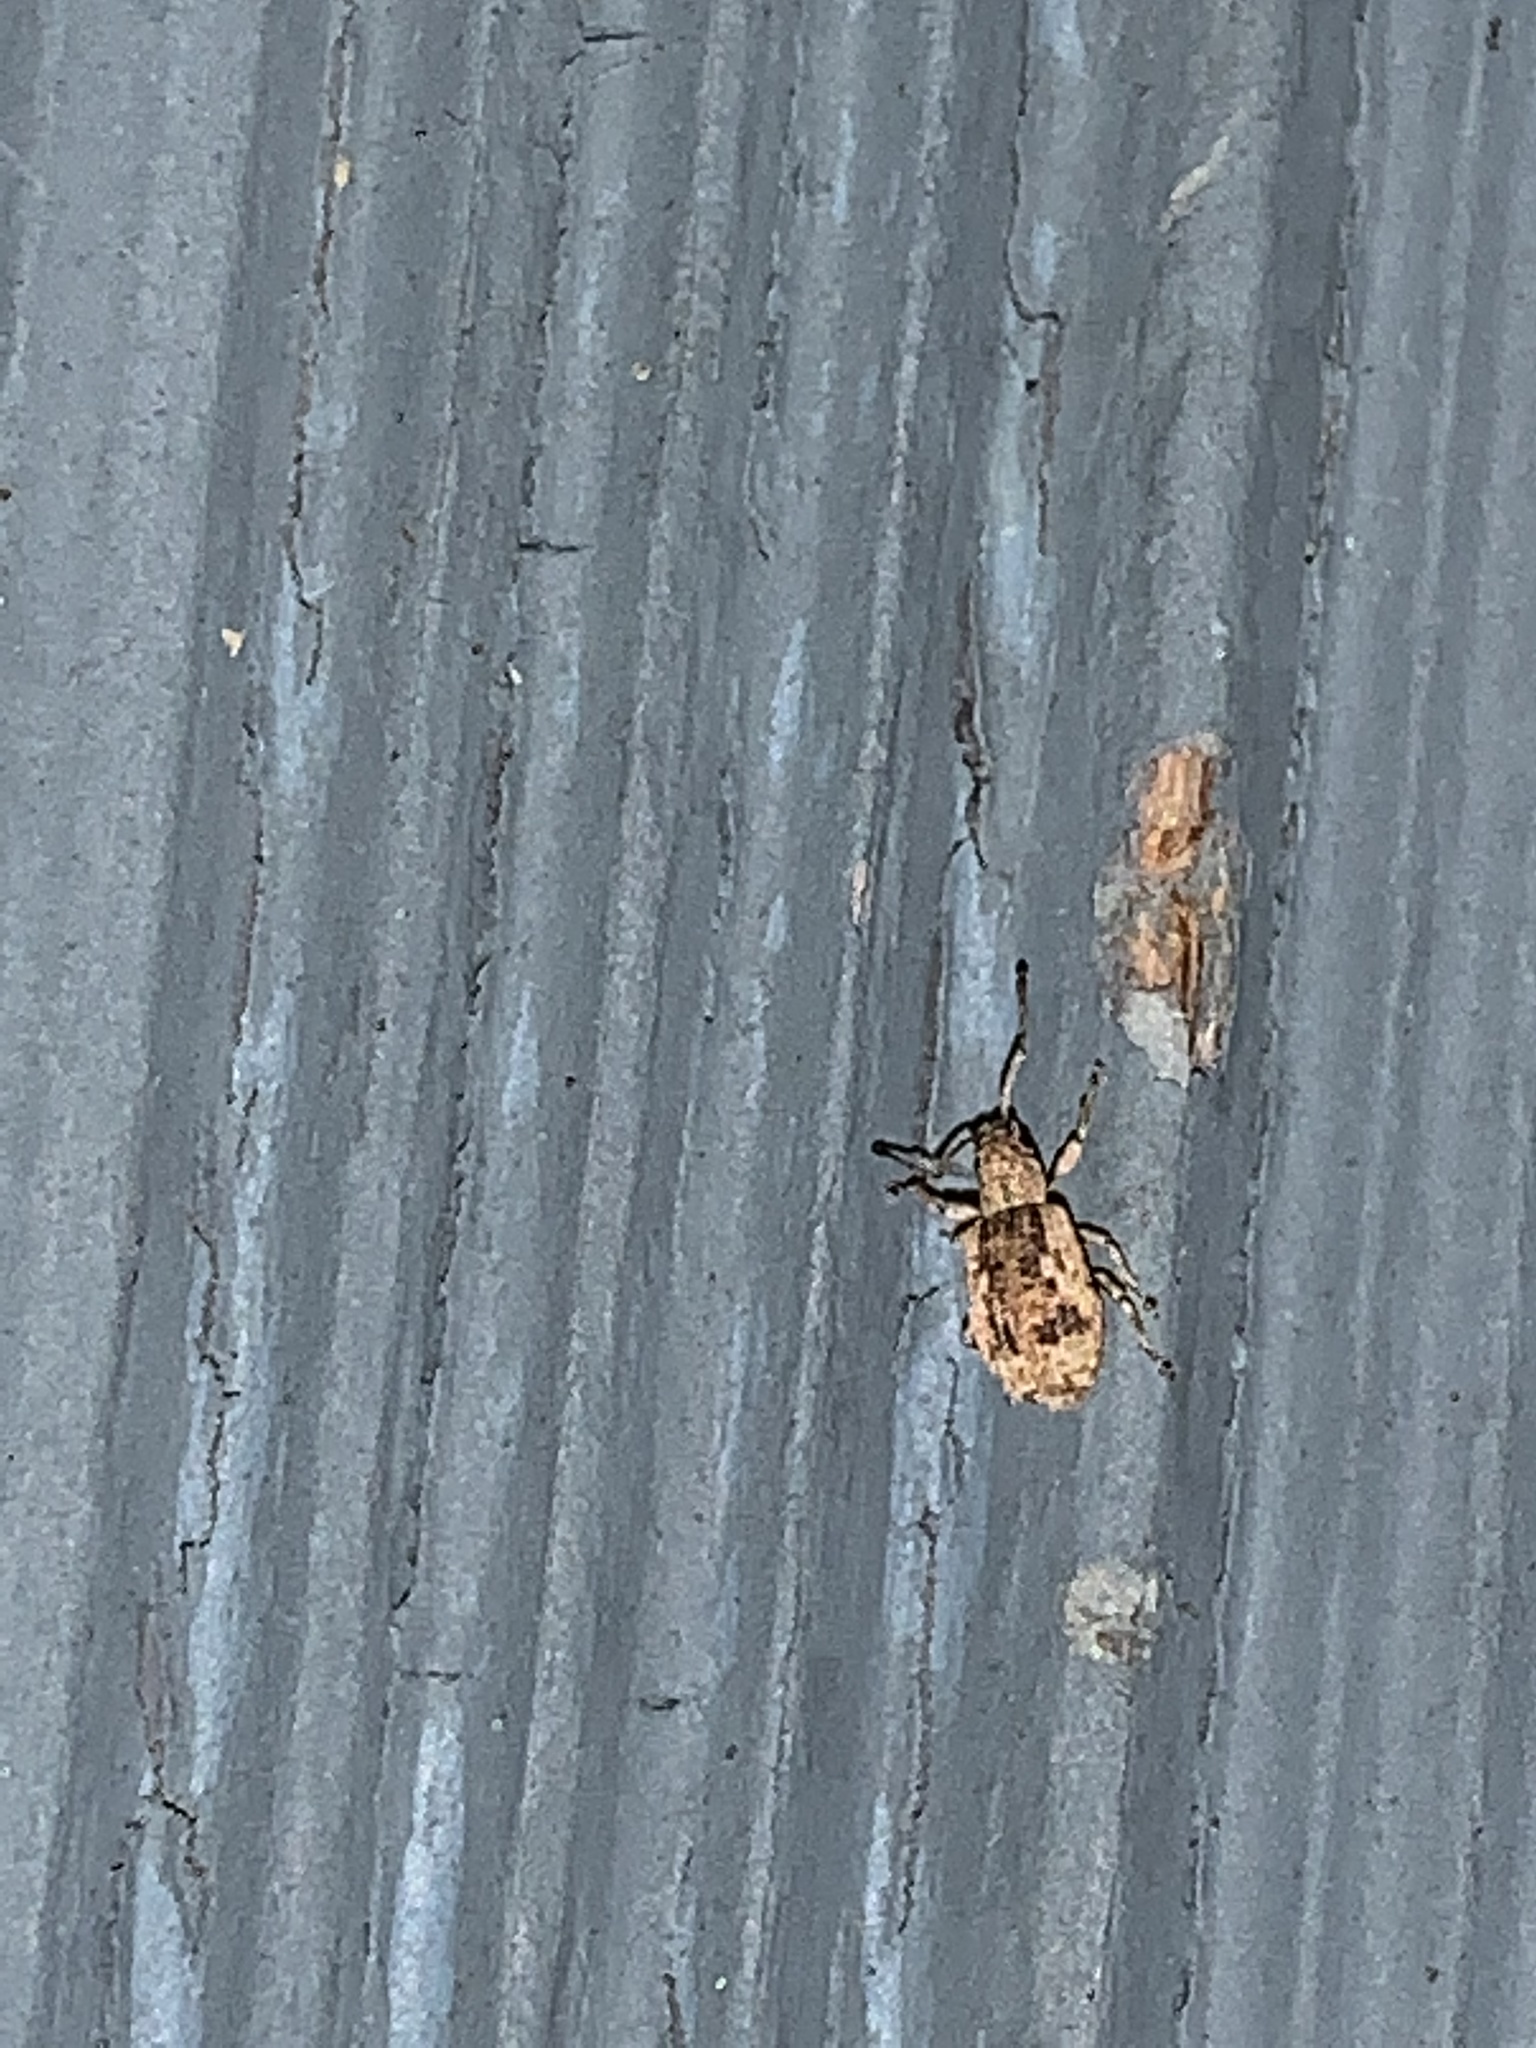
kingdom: Animalia
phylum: Arthropoda
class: Insecta
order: Coleoptera
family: Curculionidae
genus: Pseudoedophrys
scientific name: Pseudoedophrys hilleri
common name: Weevil
